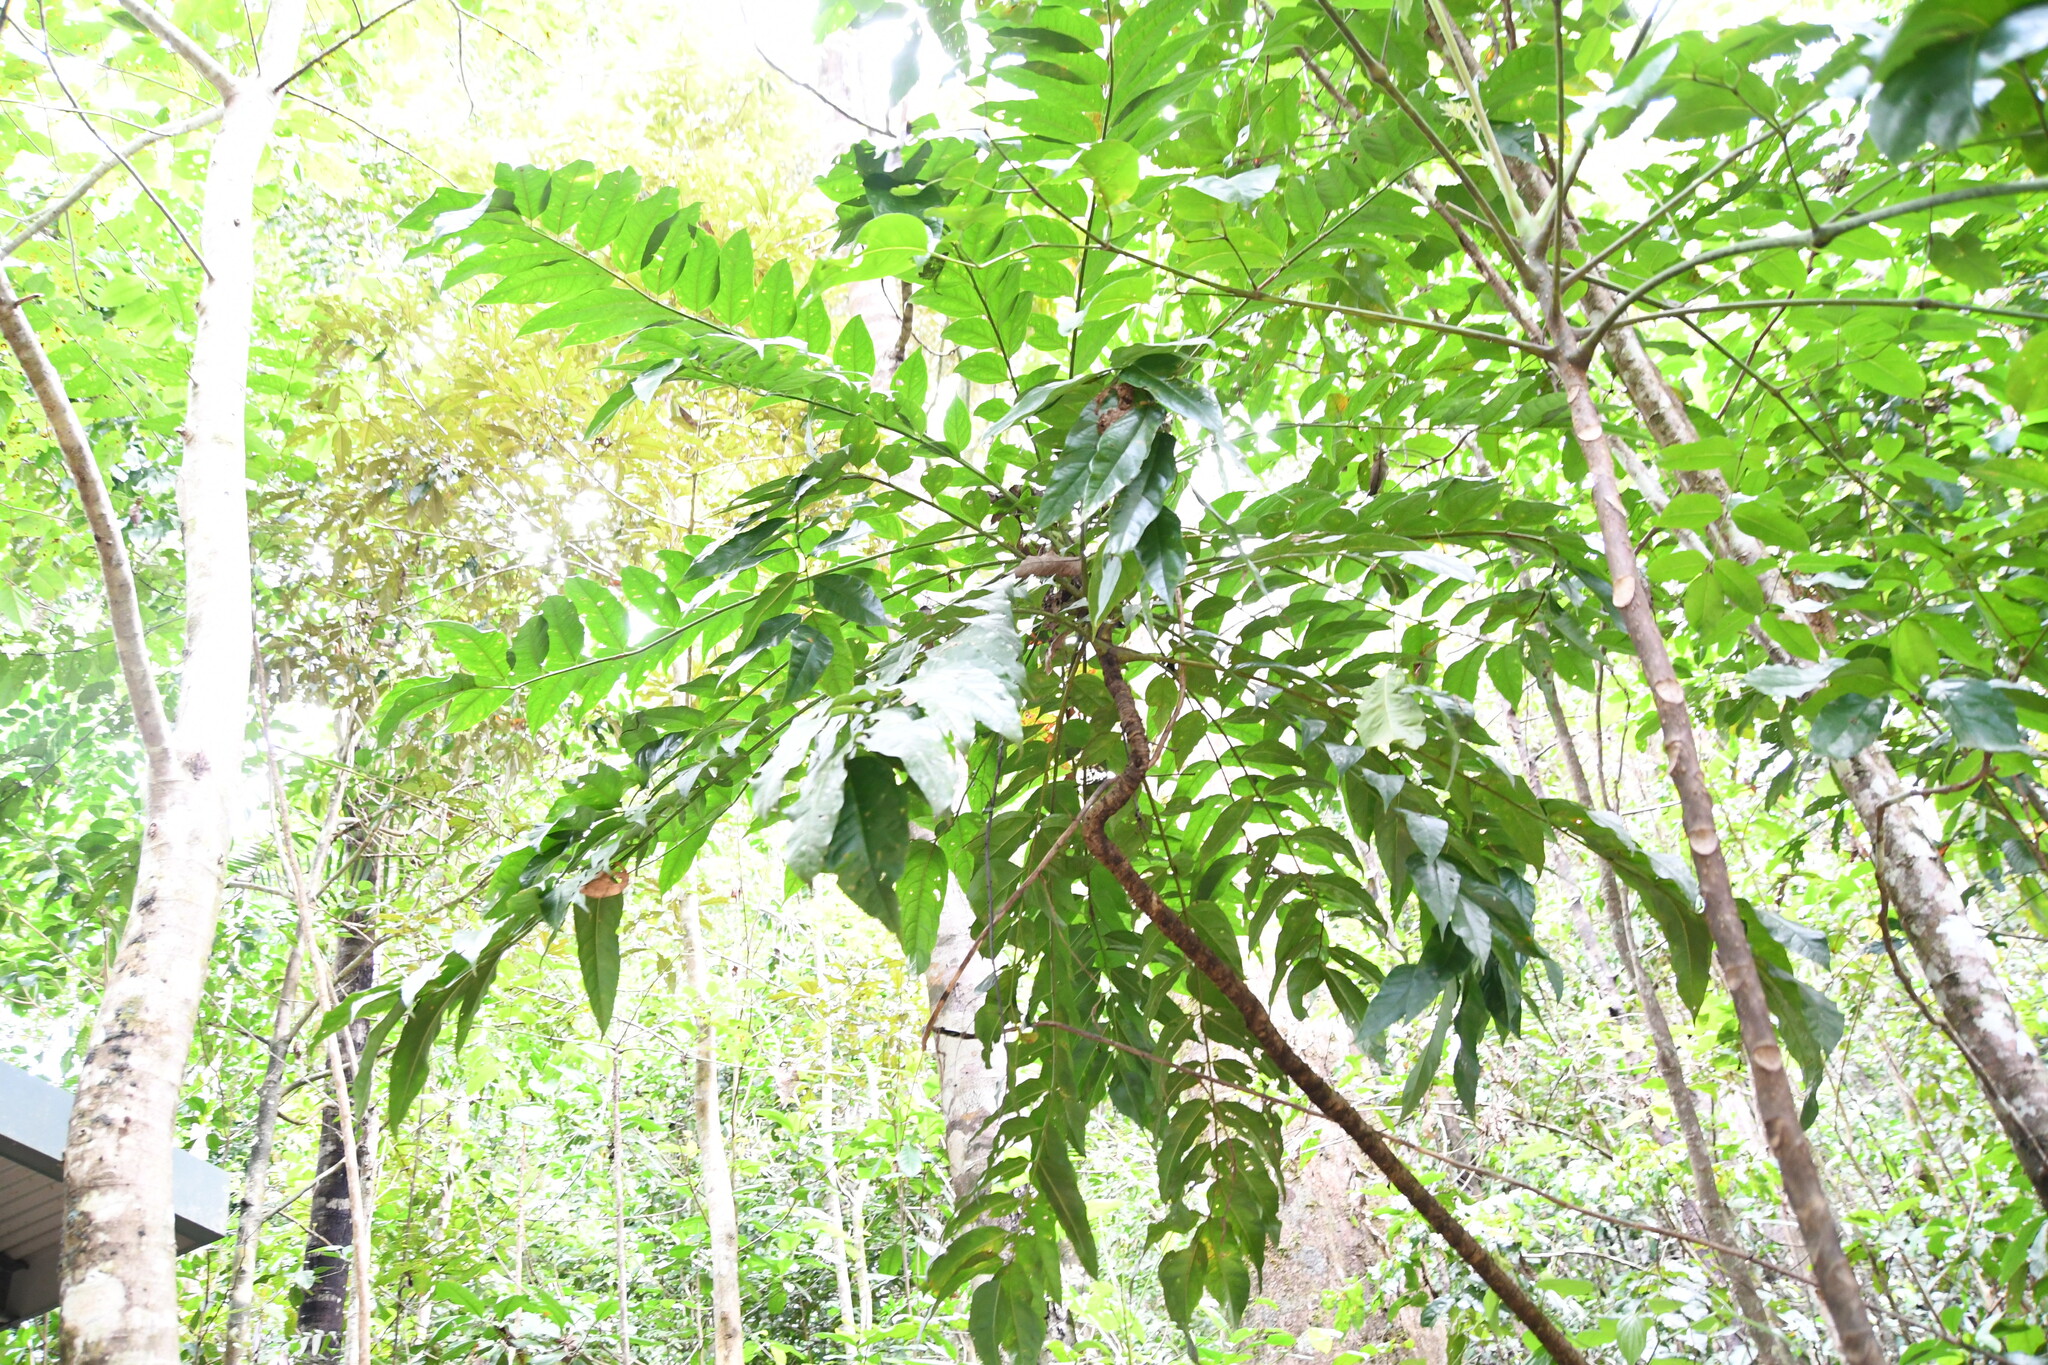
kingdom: Plantae
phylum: Tracheophyta
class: Magnoliopsida
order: Apiales
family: Myodocarpaceae
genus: Delarbrea
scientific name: Delarbrea michieana
